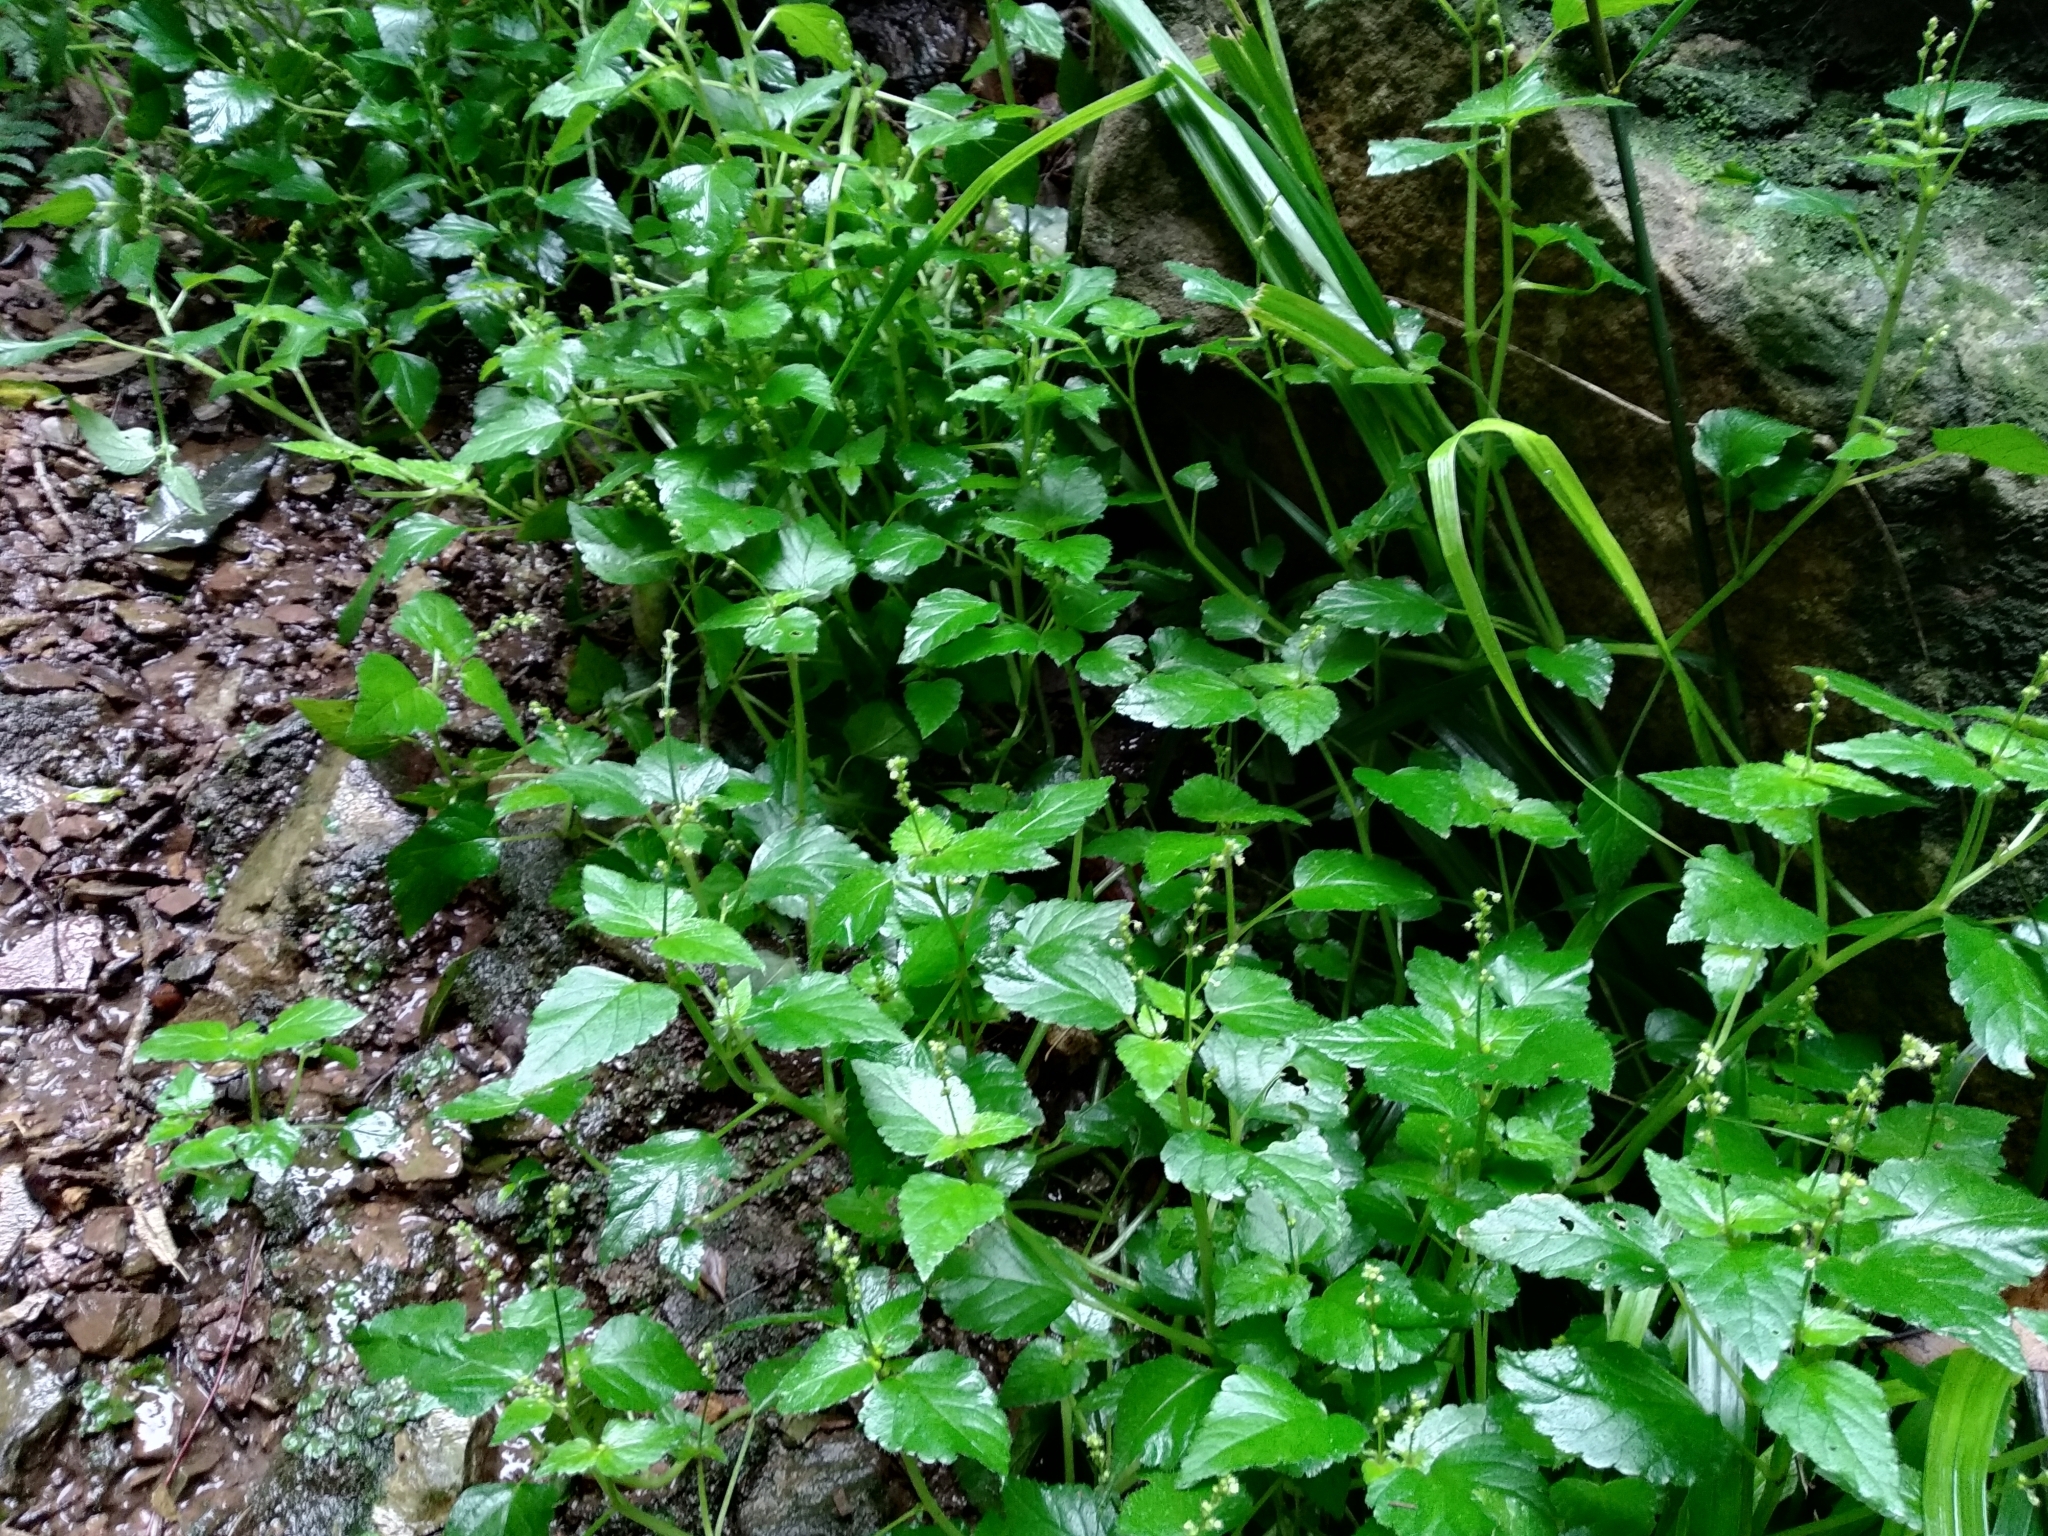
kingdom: Plantae
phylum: Tracheophyta
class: Magnoliopsida
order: Malpighiales
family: Euphorbiaceae
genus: Leidesia
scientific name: Leidesia procumbens
